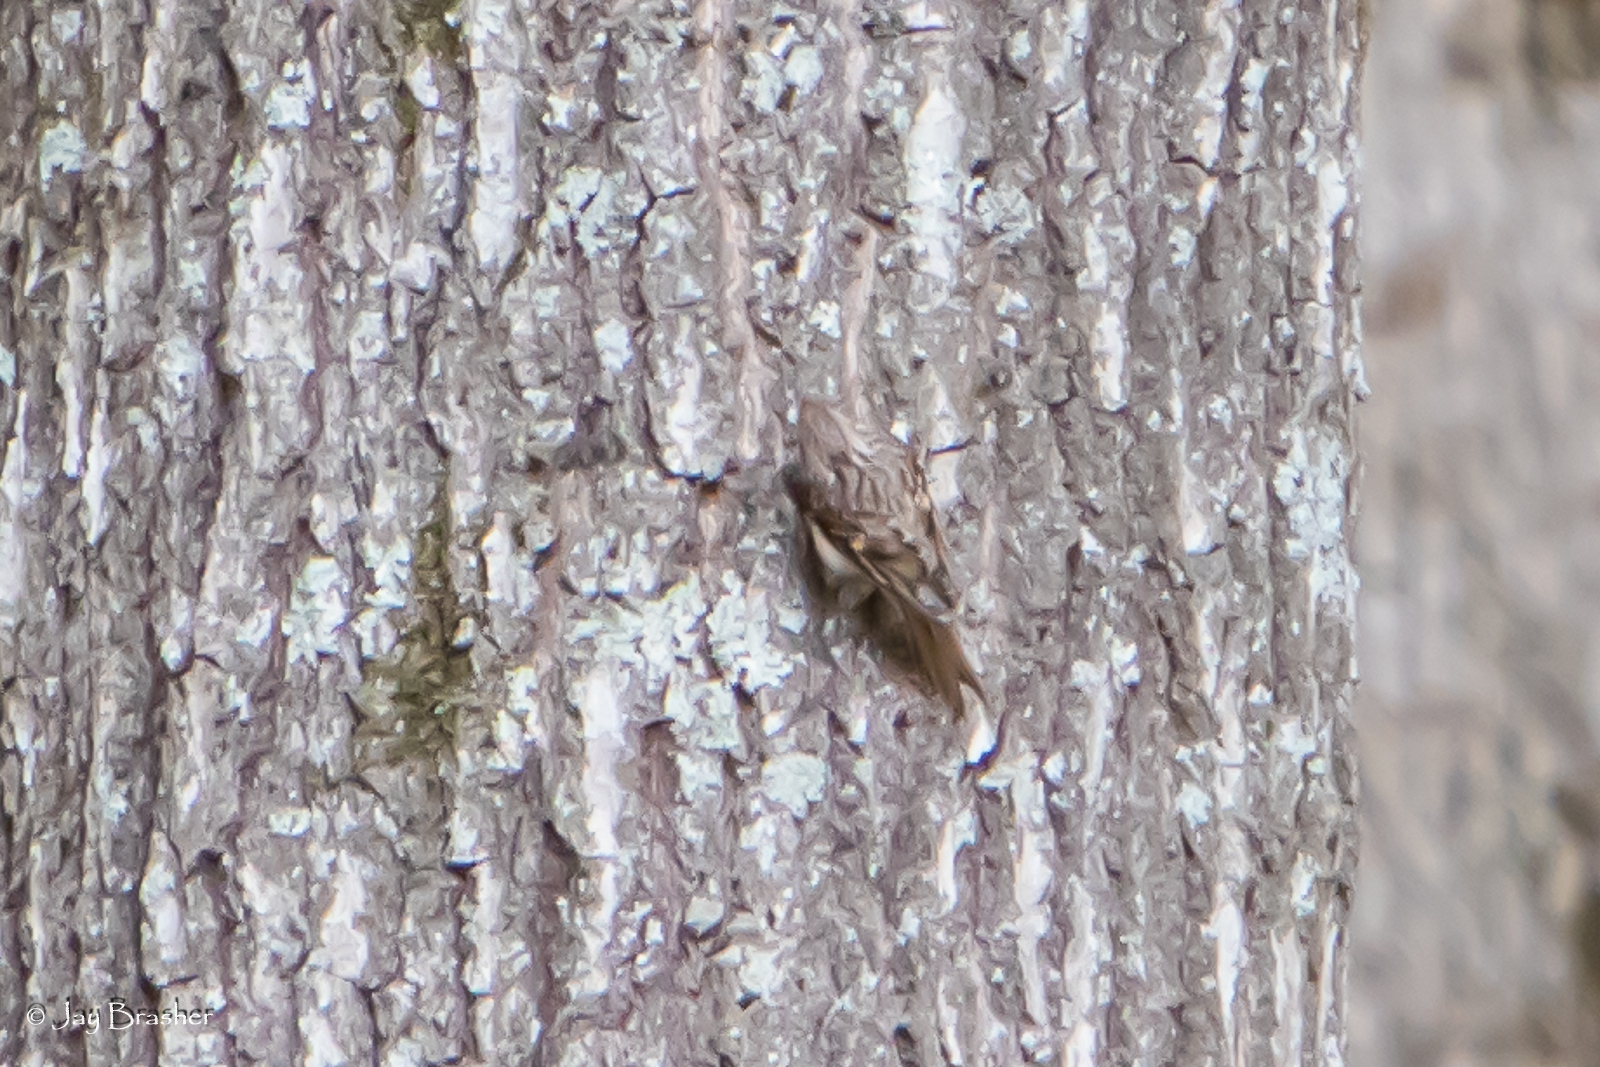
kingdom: Animalia
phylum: Chordata
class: Aves
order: Passeriformes
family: Certhiidae
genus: Certhia
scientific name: Certhia americana
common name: Brown creeper
